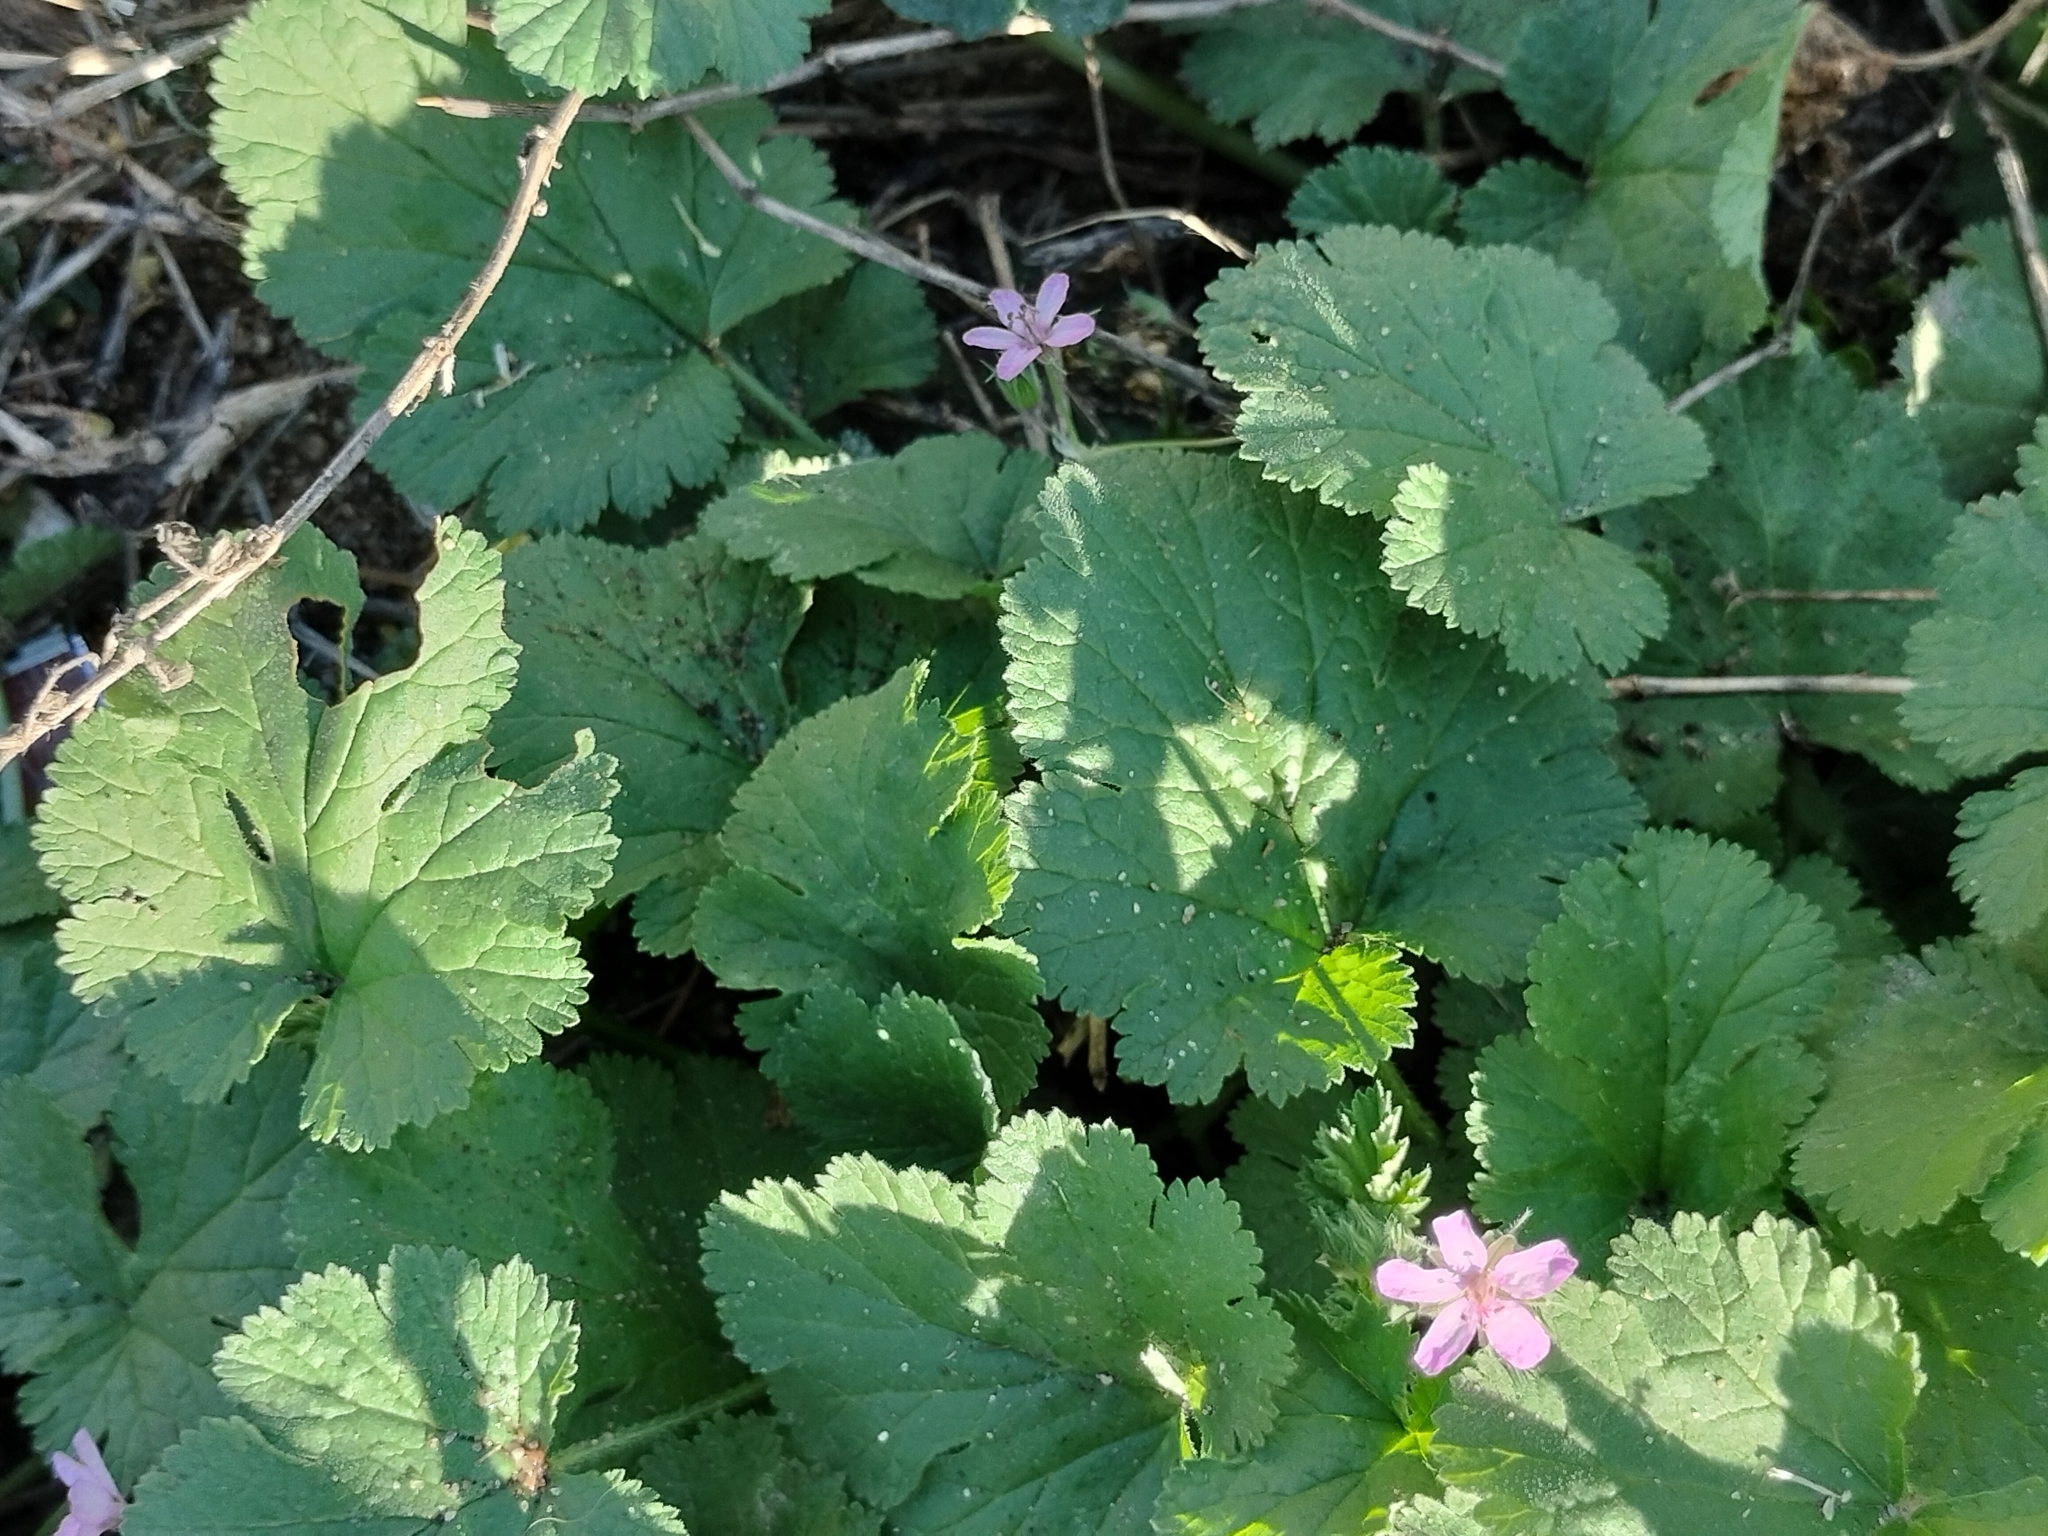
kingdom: Plantae
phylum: Tracheophyta
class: Magnoliopsida
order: Geraniales
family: Geraniaceae
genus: Erodium
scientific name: Erodium malacoides
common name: Soft stork's-bill
